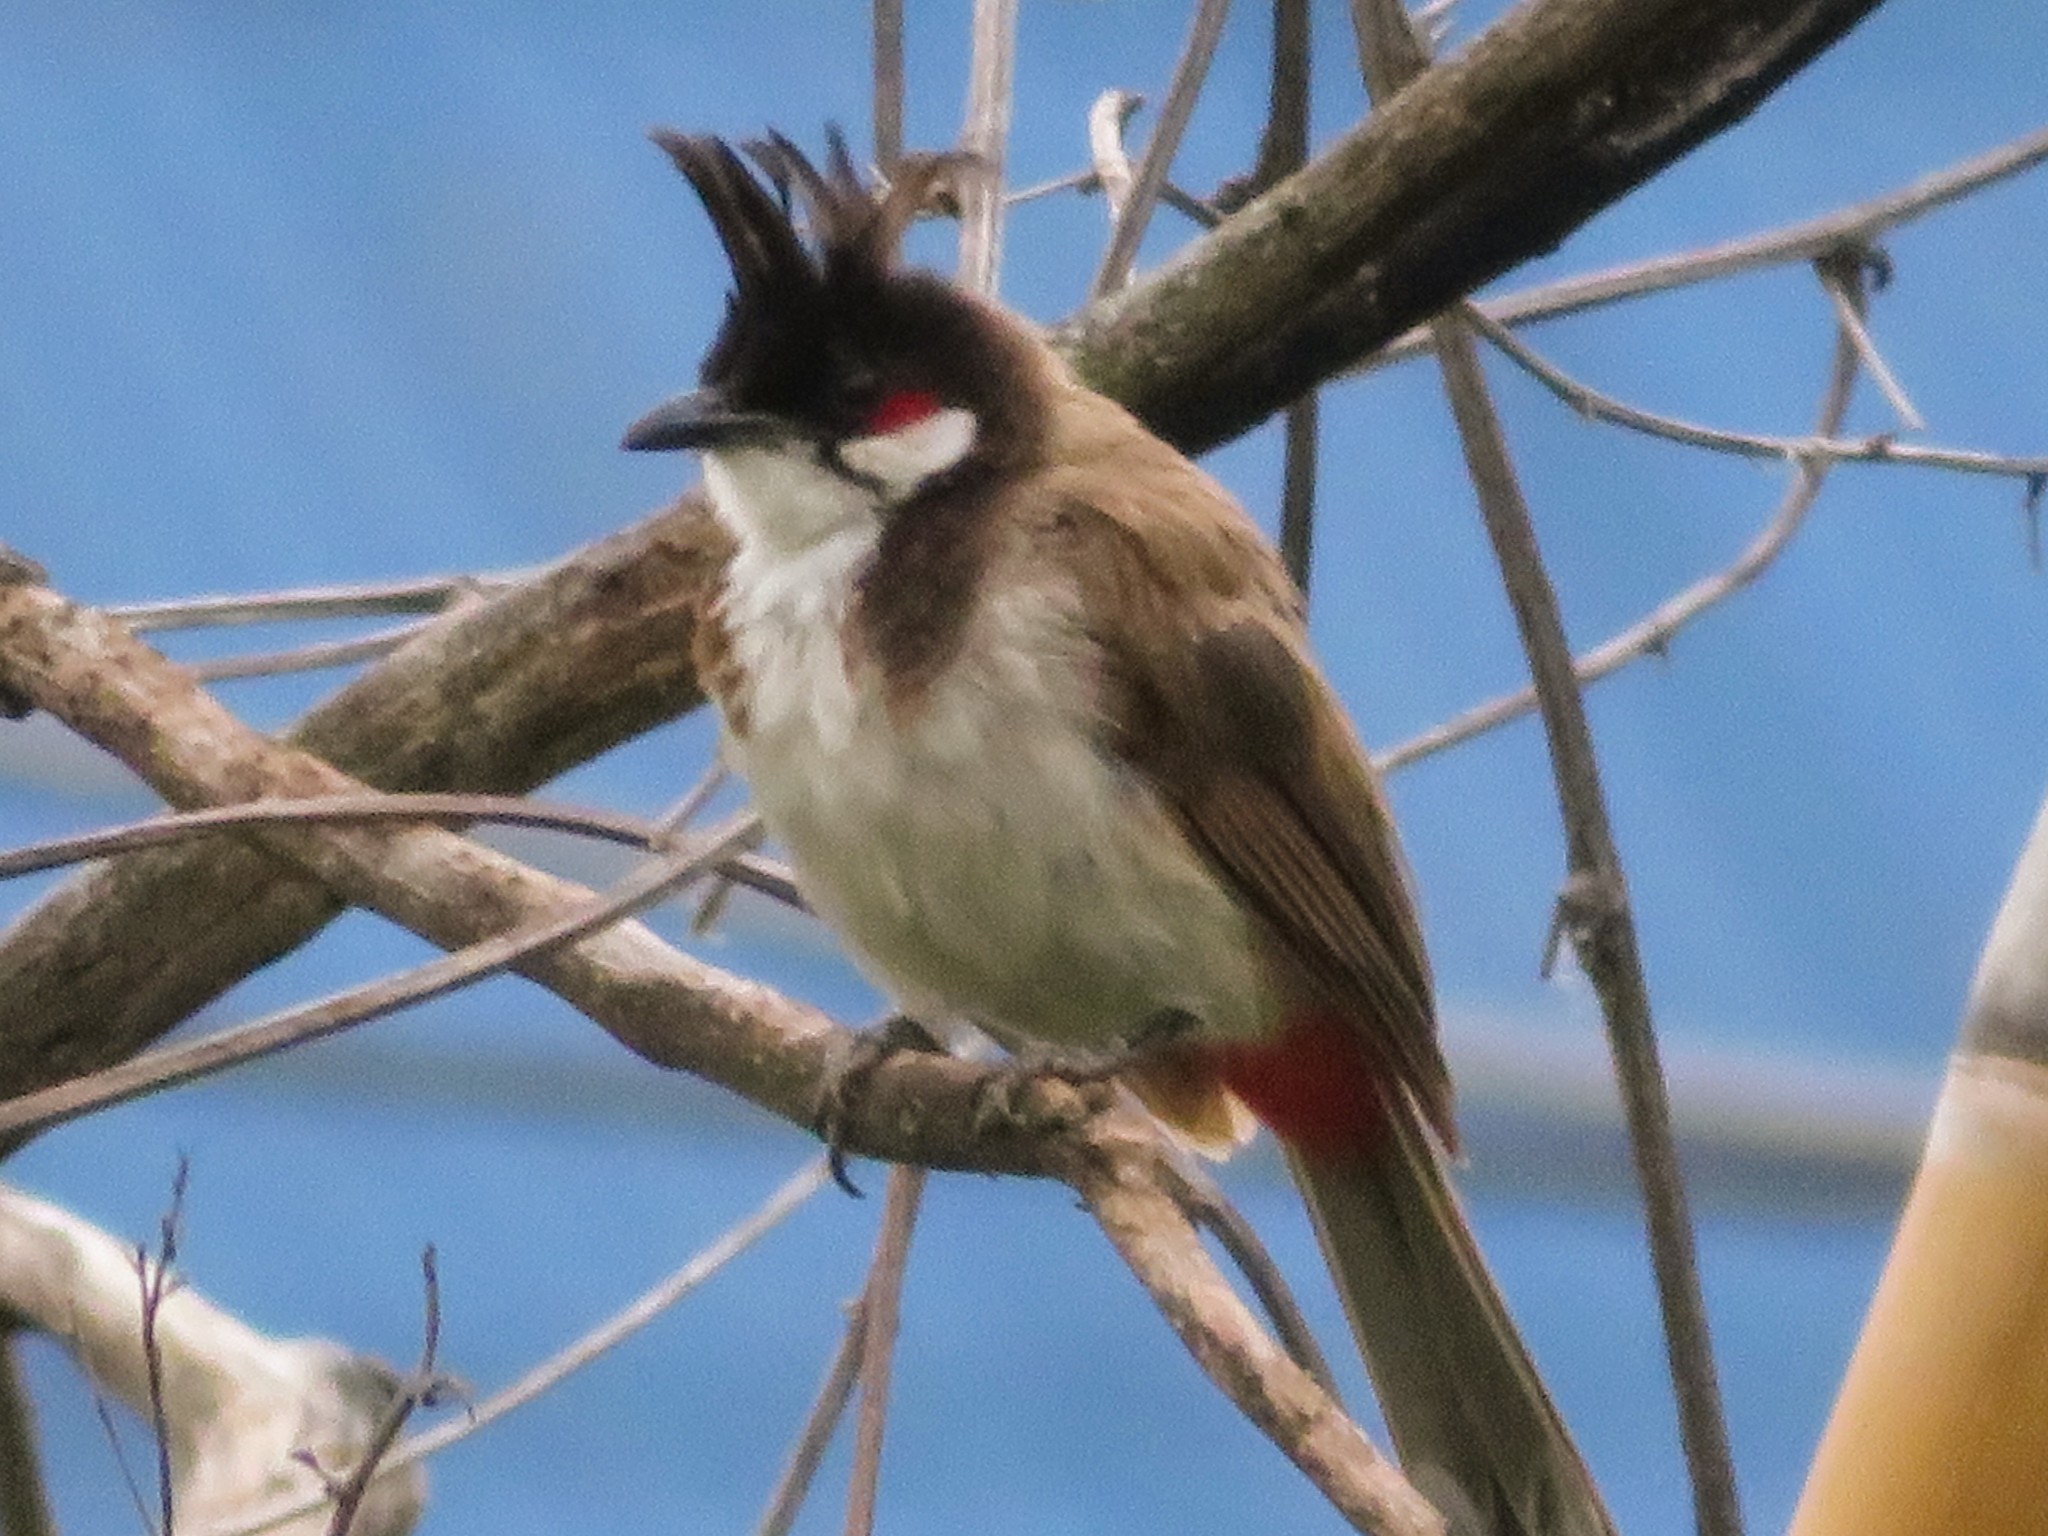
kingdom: Animalia
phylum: Chordata
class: Aves
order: Passeriformes
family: Pycnonotidae
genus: Pycnonotus
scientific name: Pycnonotus jocosus
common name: Red-whiskered bulbul
